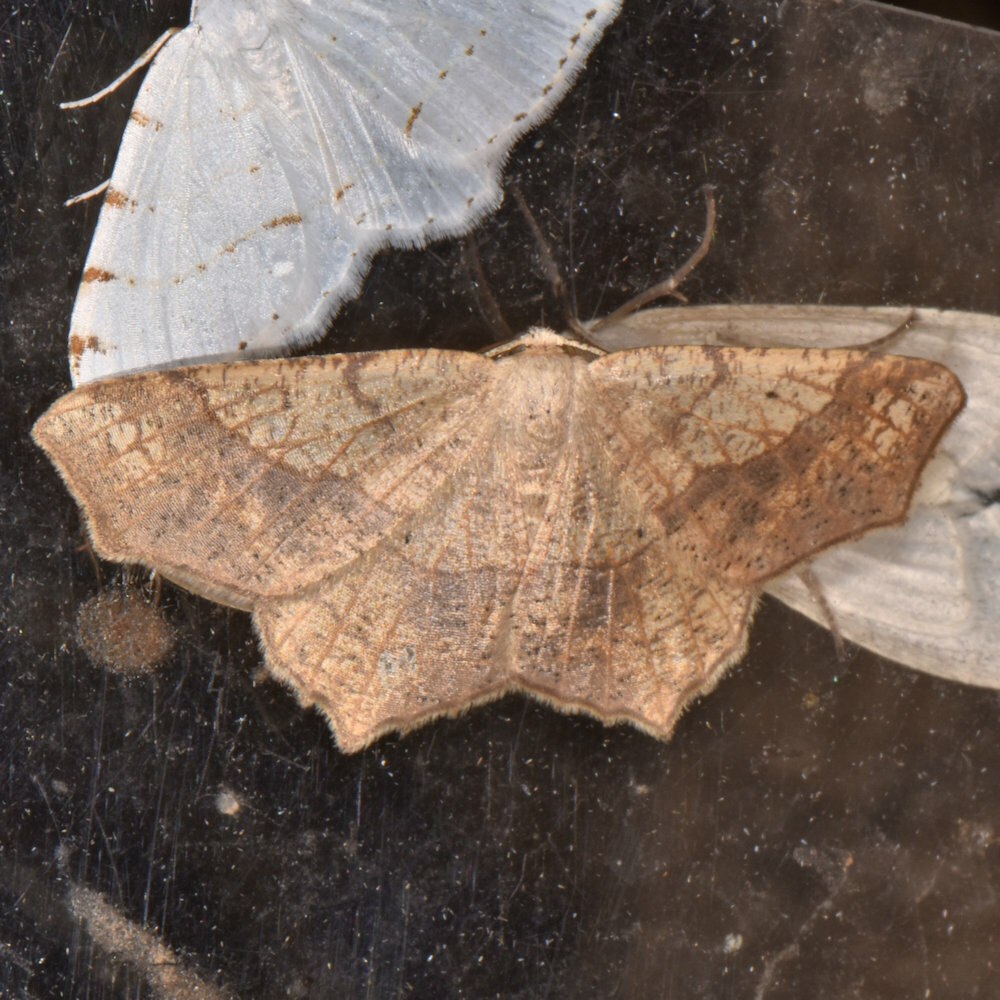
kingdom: Animalia
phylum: Arthropoda
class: Insecta
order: Lepidoptera
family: Geometridae
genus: Besma
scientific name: Besma quercivoraria
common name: Oak besma
